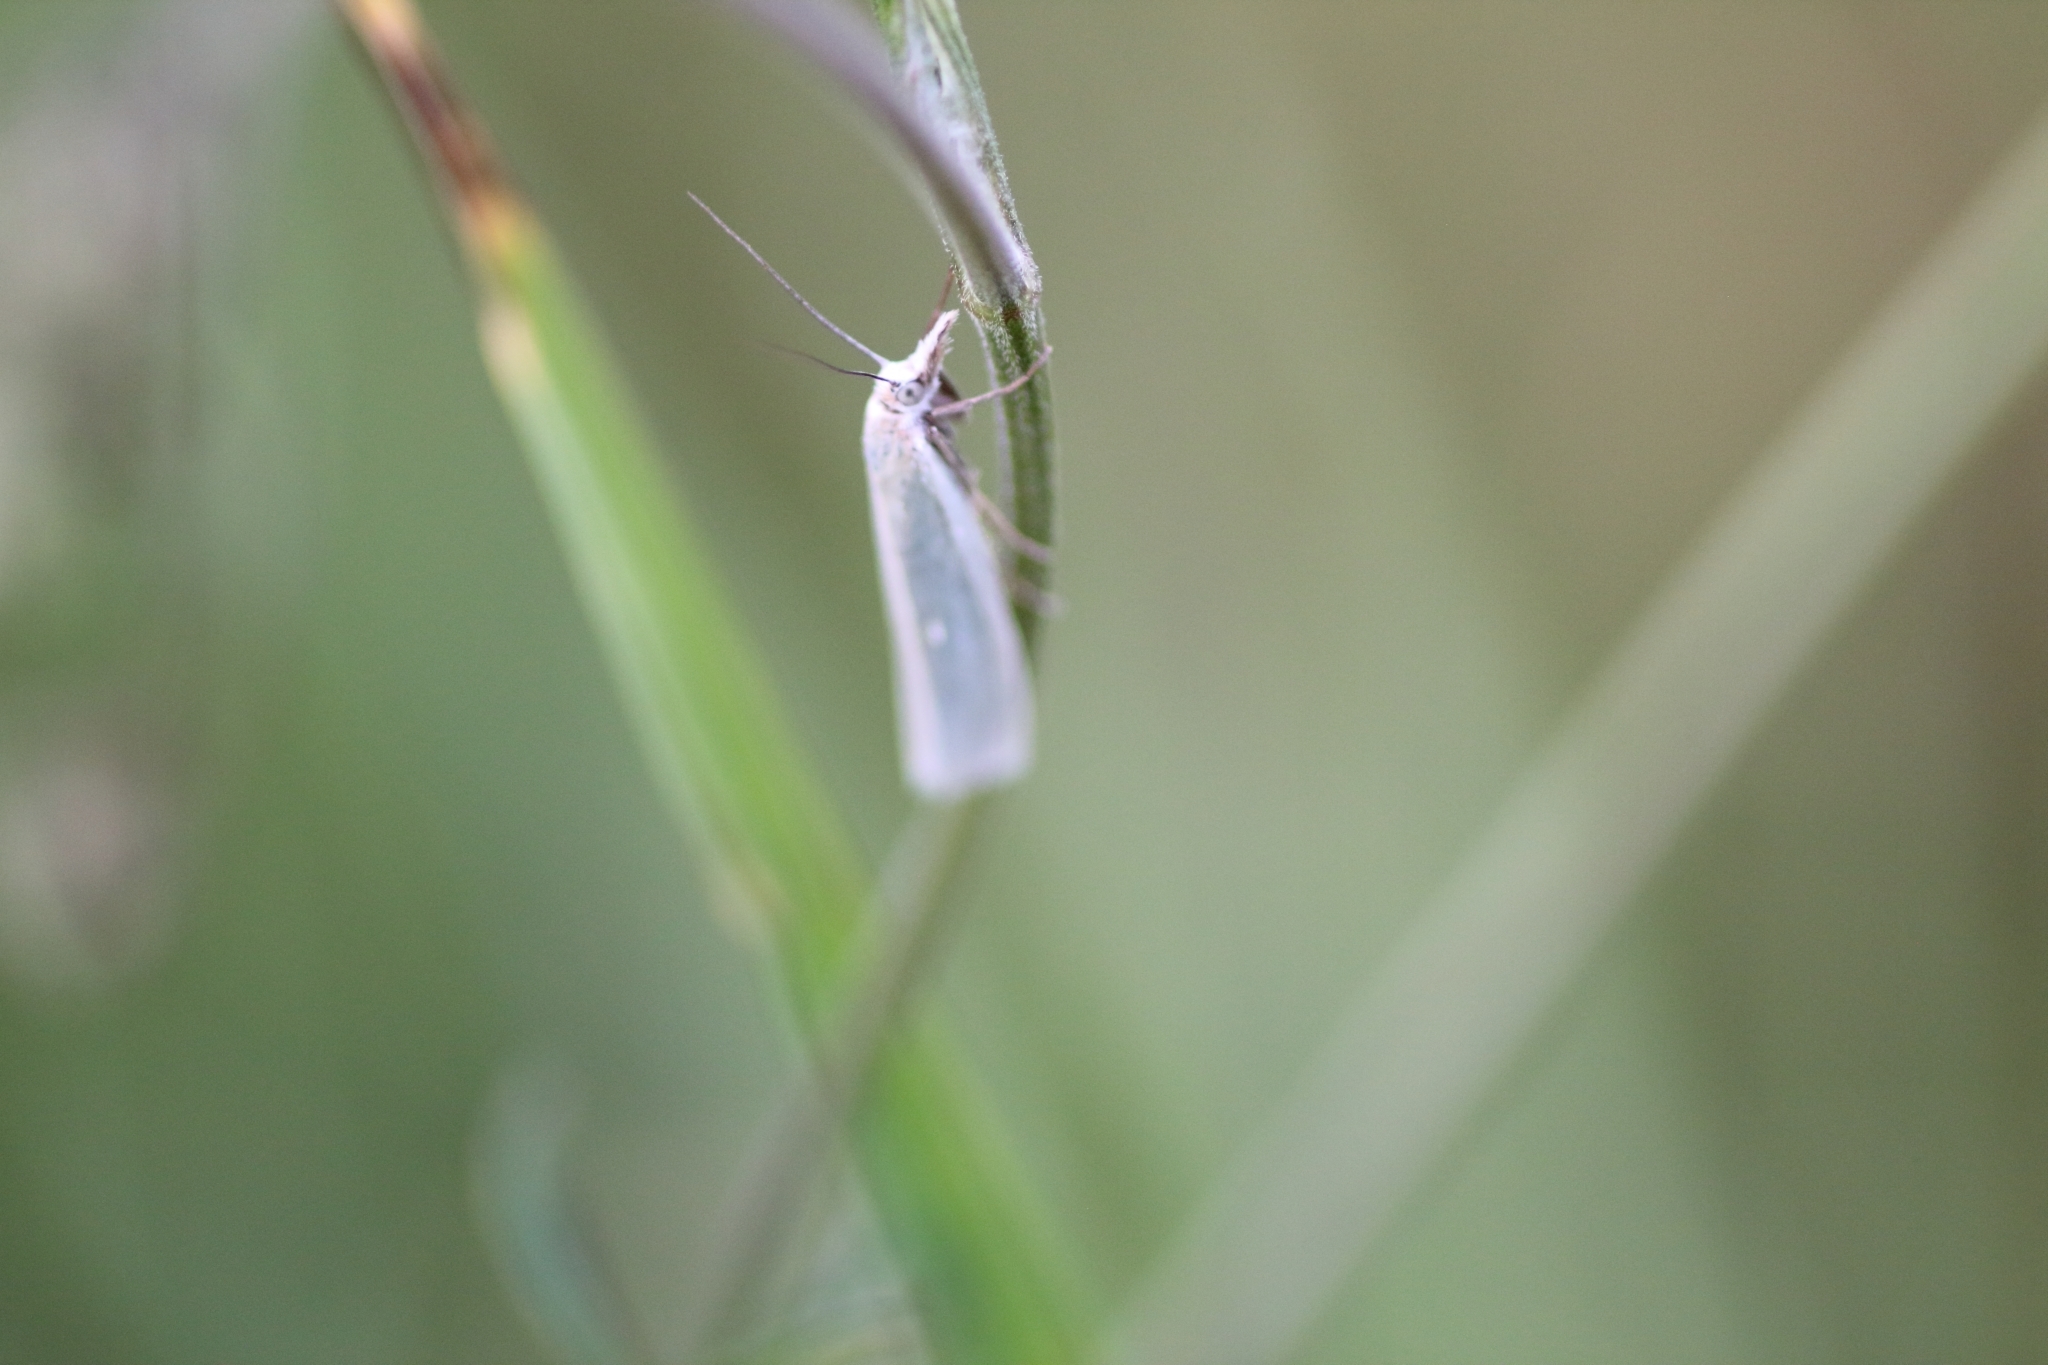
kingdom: Animalia
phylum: Arthropoda
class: Insecta
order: Lepidoptera
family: Crambidae
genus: Crambus
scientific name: Crambus perlellus
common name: Yellow satin veneer
